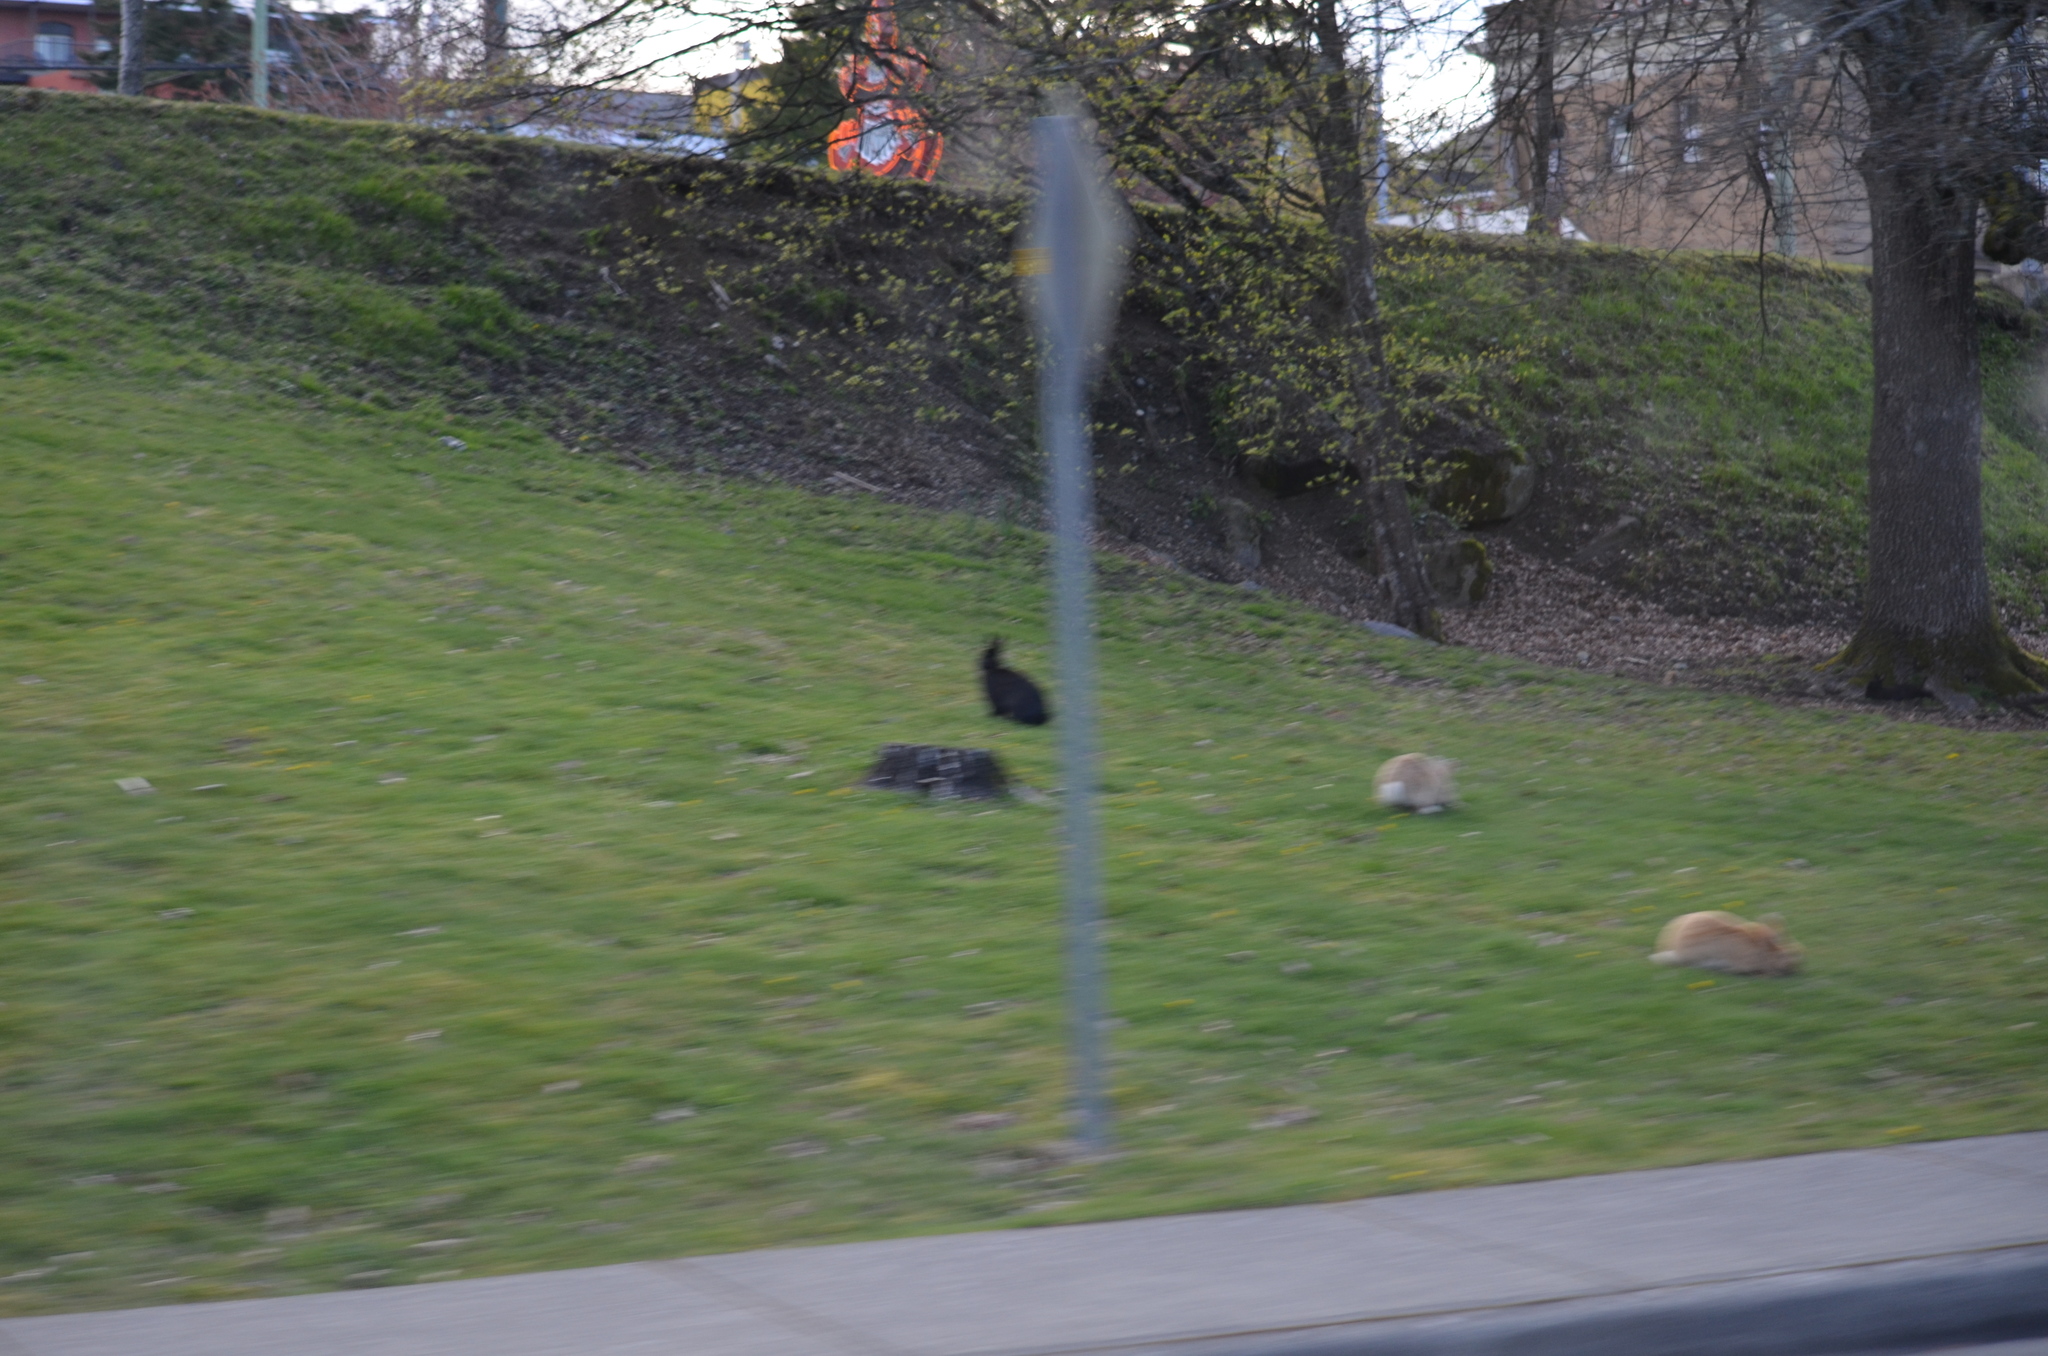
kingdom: Animalia
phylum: Chordata
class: Mammalia
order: Lagomorpha
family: Leporidae
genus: Oryctolagus
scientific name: Oryctolagus cuniculus
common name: European rabbit
